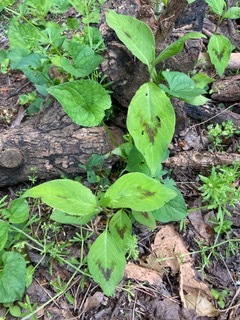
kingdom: Plantae
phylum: Tracheophyta
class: Magnoliopsida
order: Caryophyllales
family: Polygonaceae
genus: Persicaria
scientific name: Persicaria virginiana
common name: Jumpseed
